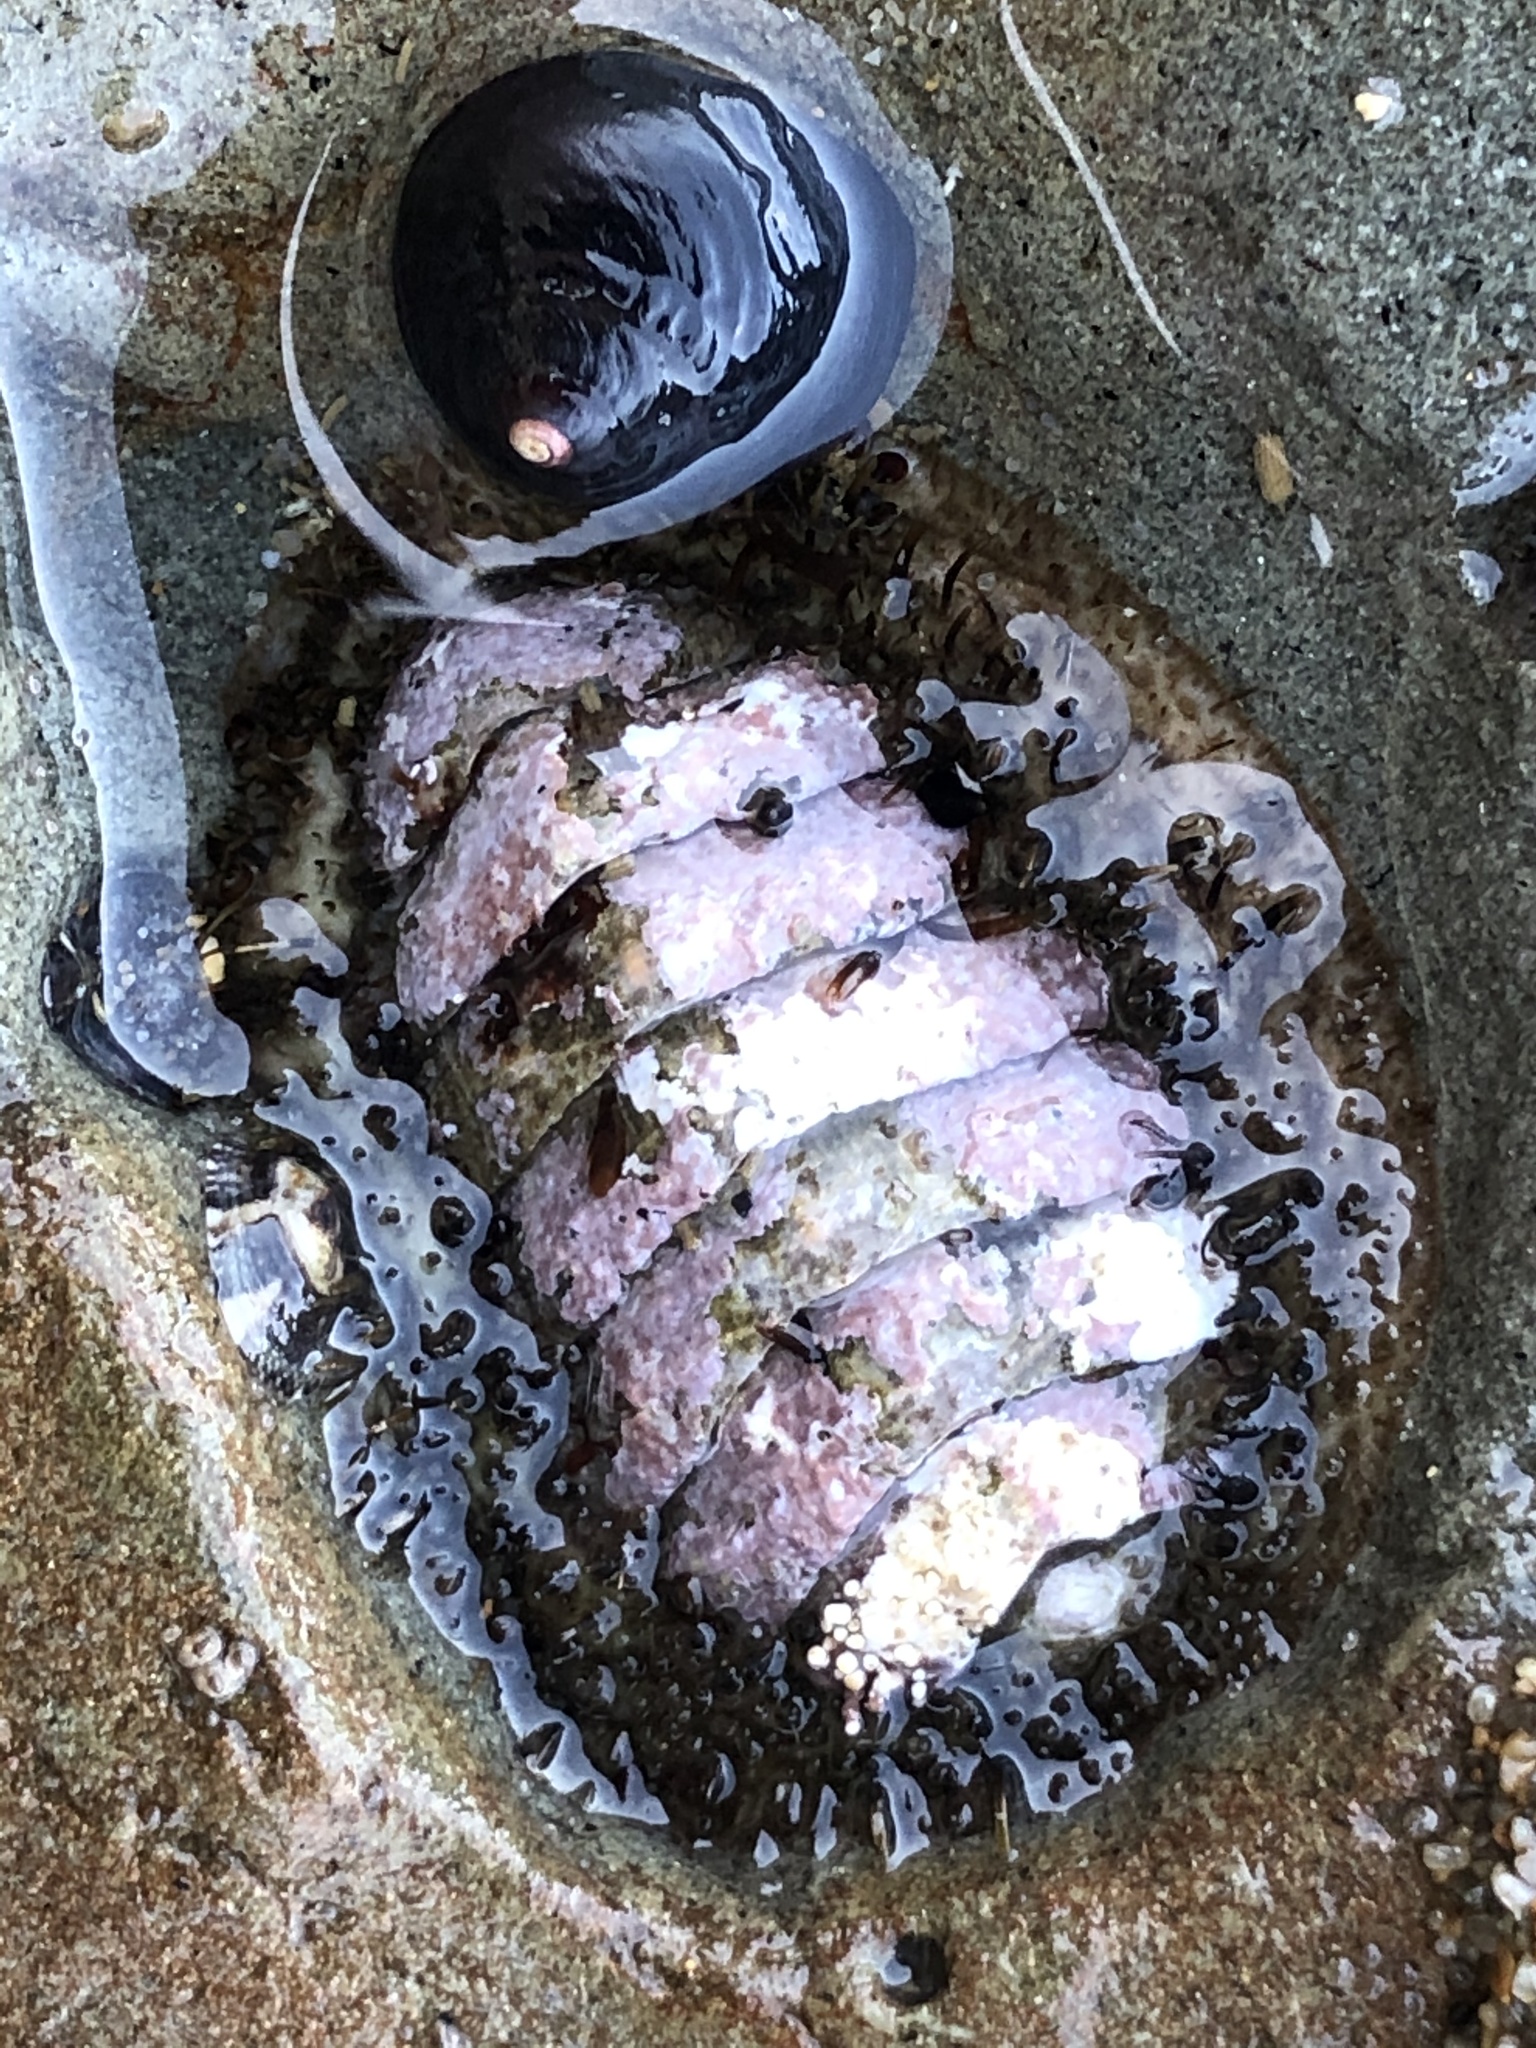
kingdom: Animalia
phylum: Mollusca
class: Polyplacophora
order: Chitonida
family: Mopaliidae
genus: Mopalia
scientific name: Mopalia muscosa
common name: Mossy chiton
